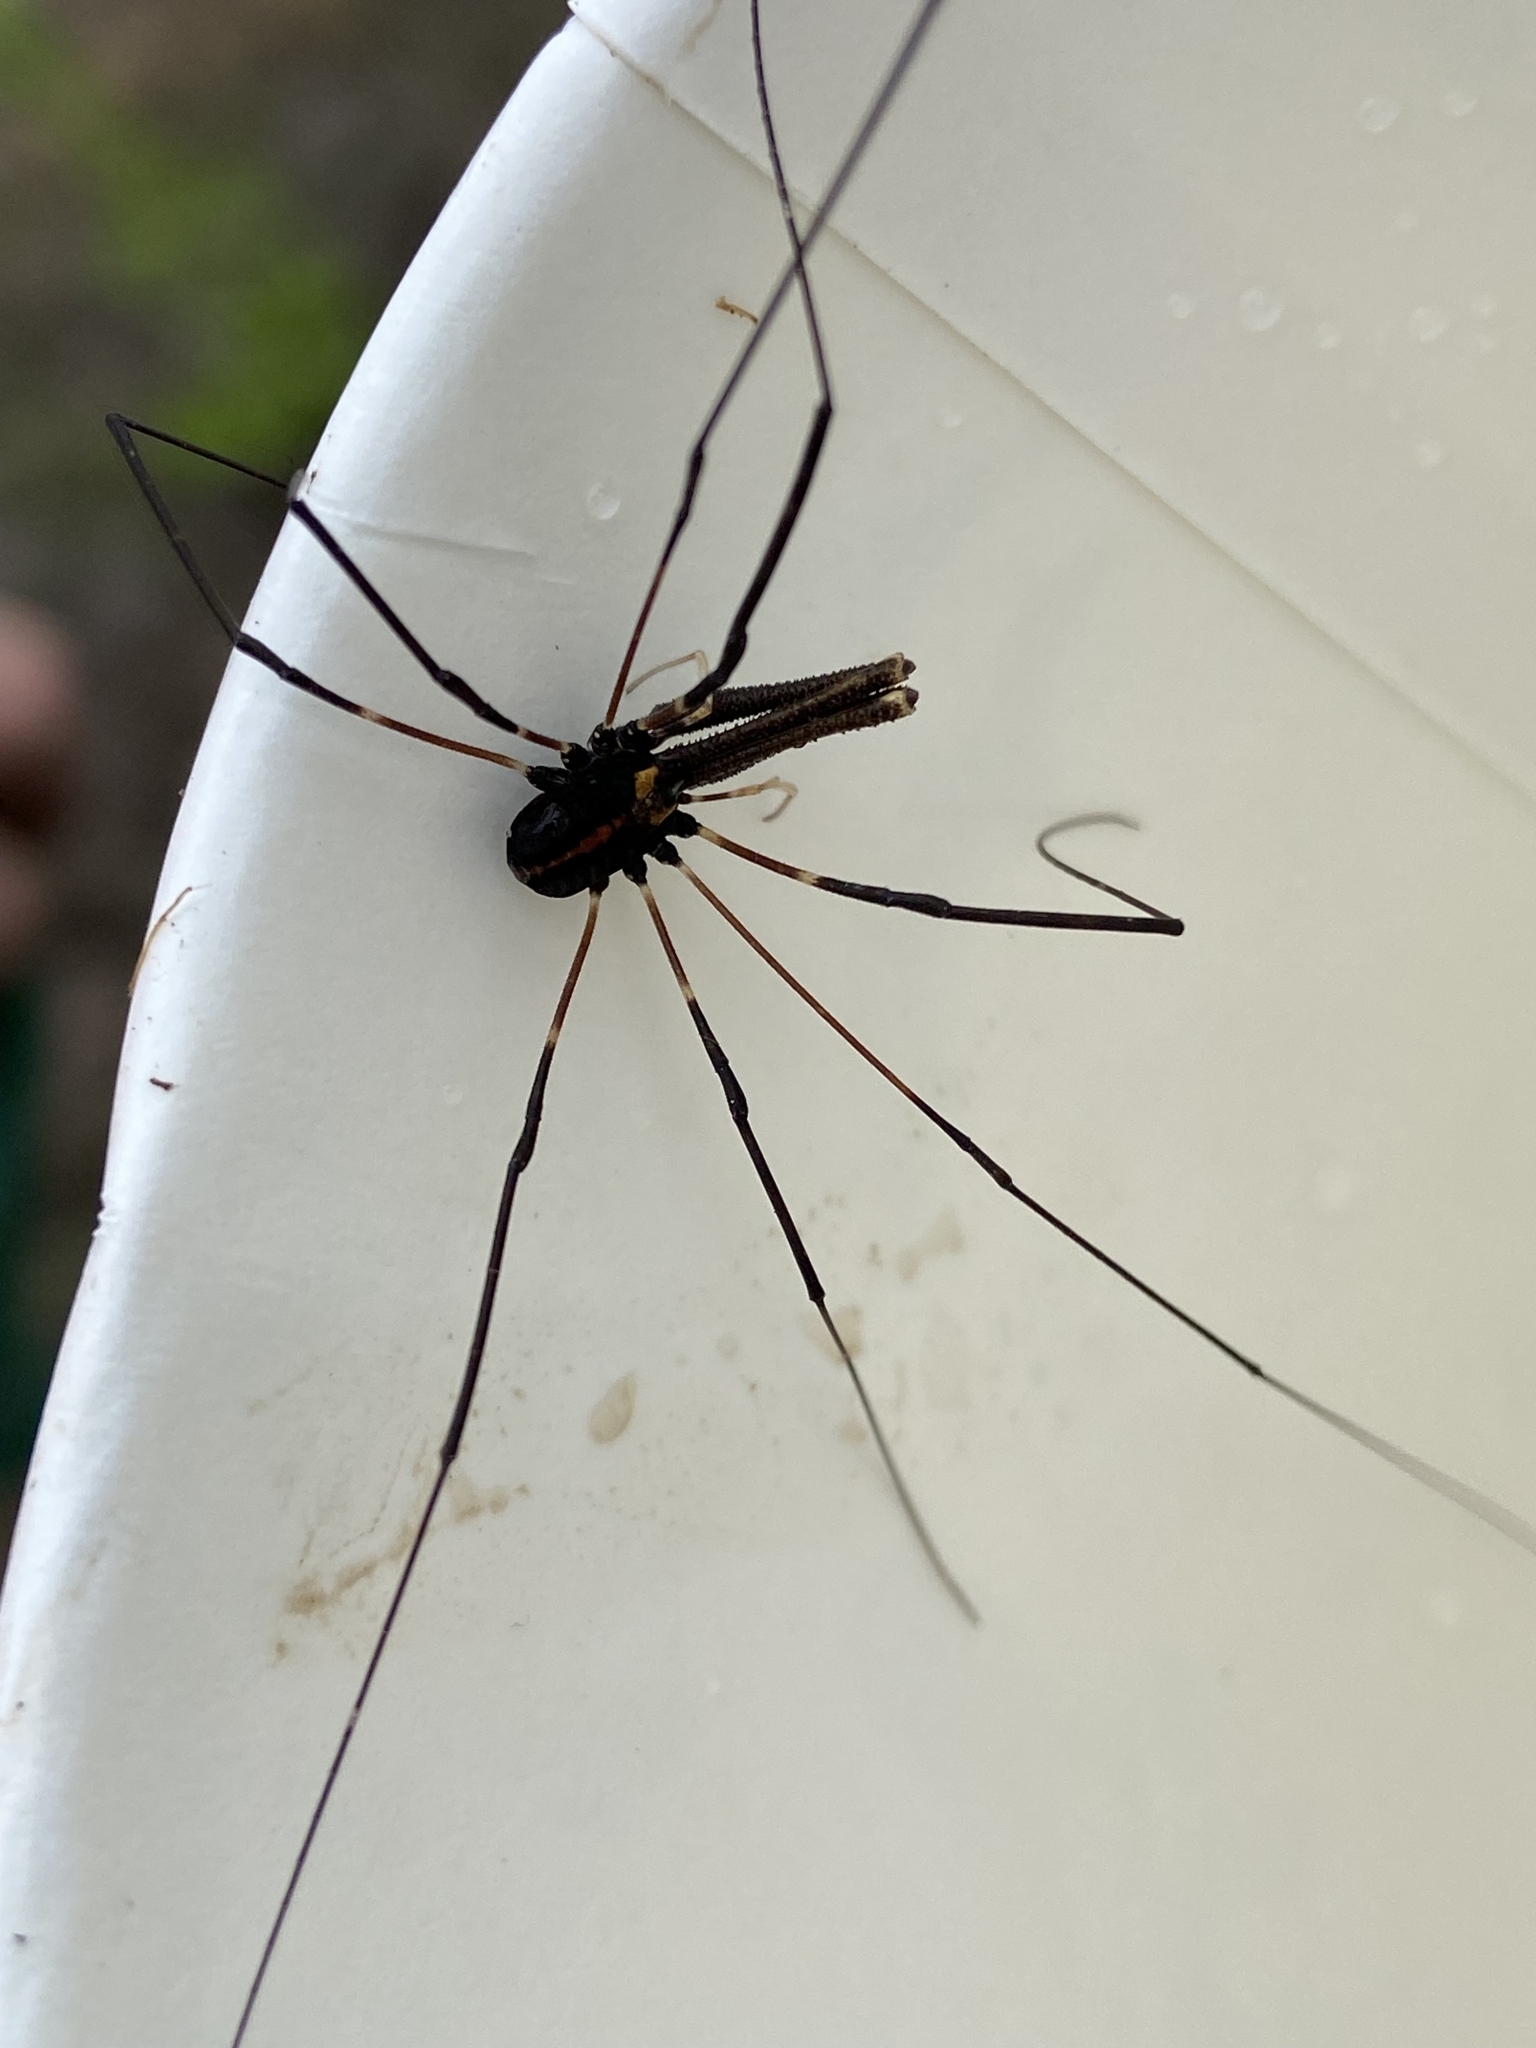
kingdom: Animalia
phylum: Arthropoda
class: Arachnida
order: Opiliones
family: Neopilionidae
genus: Forsteropsalis
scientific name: Forsteropsalis pureora
